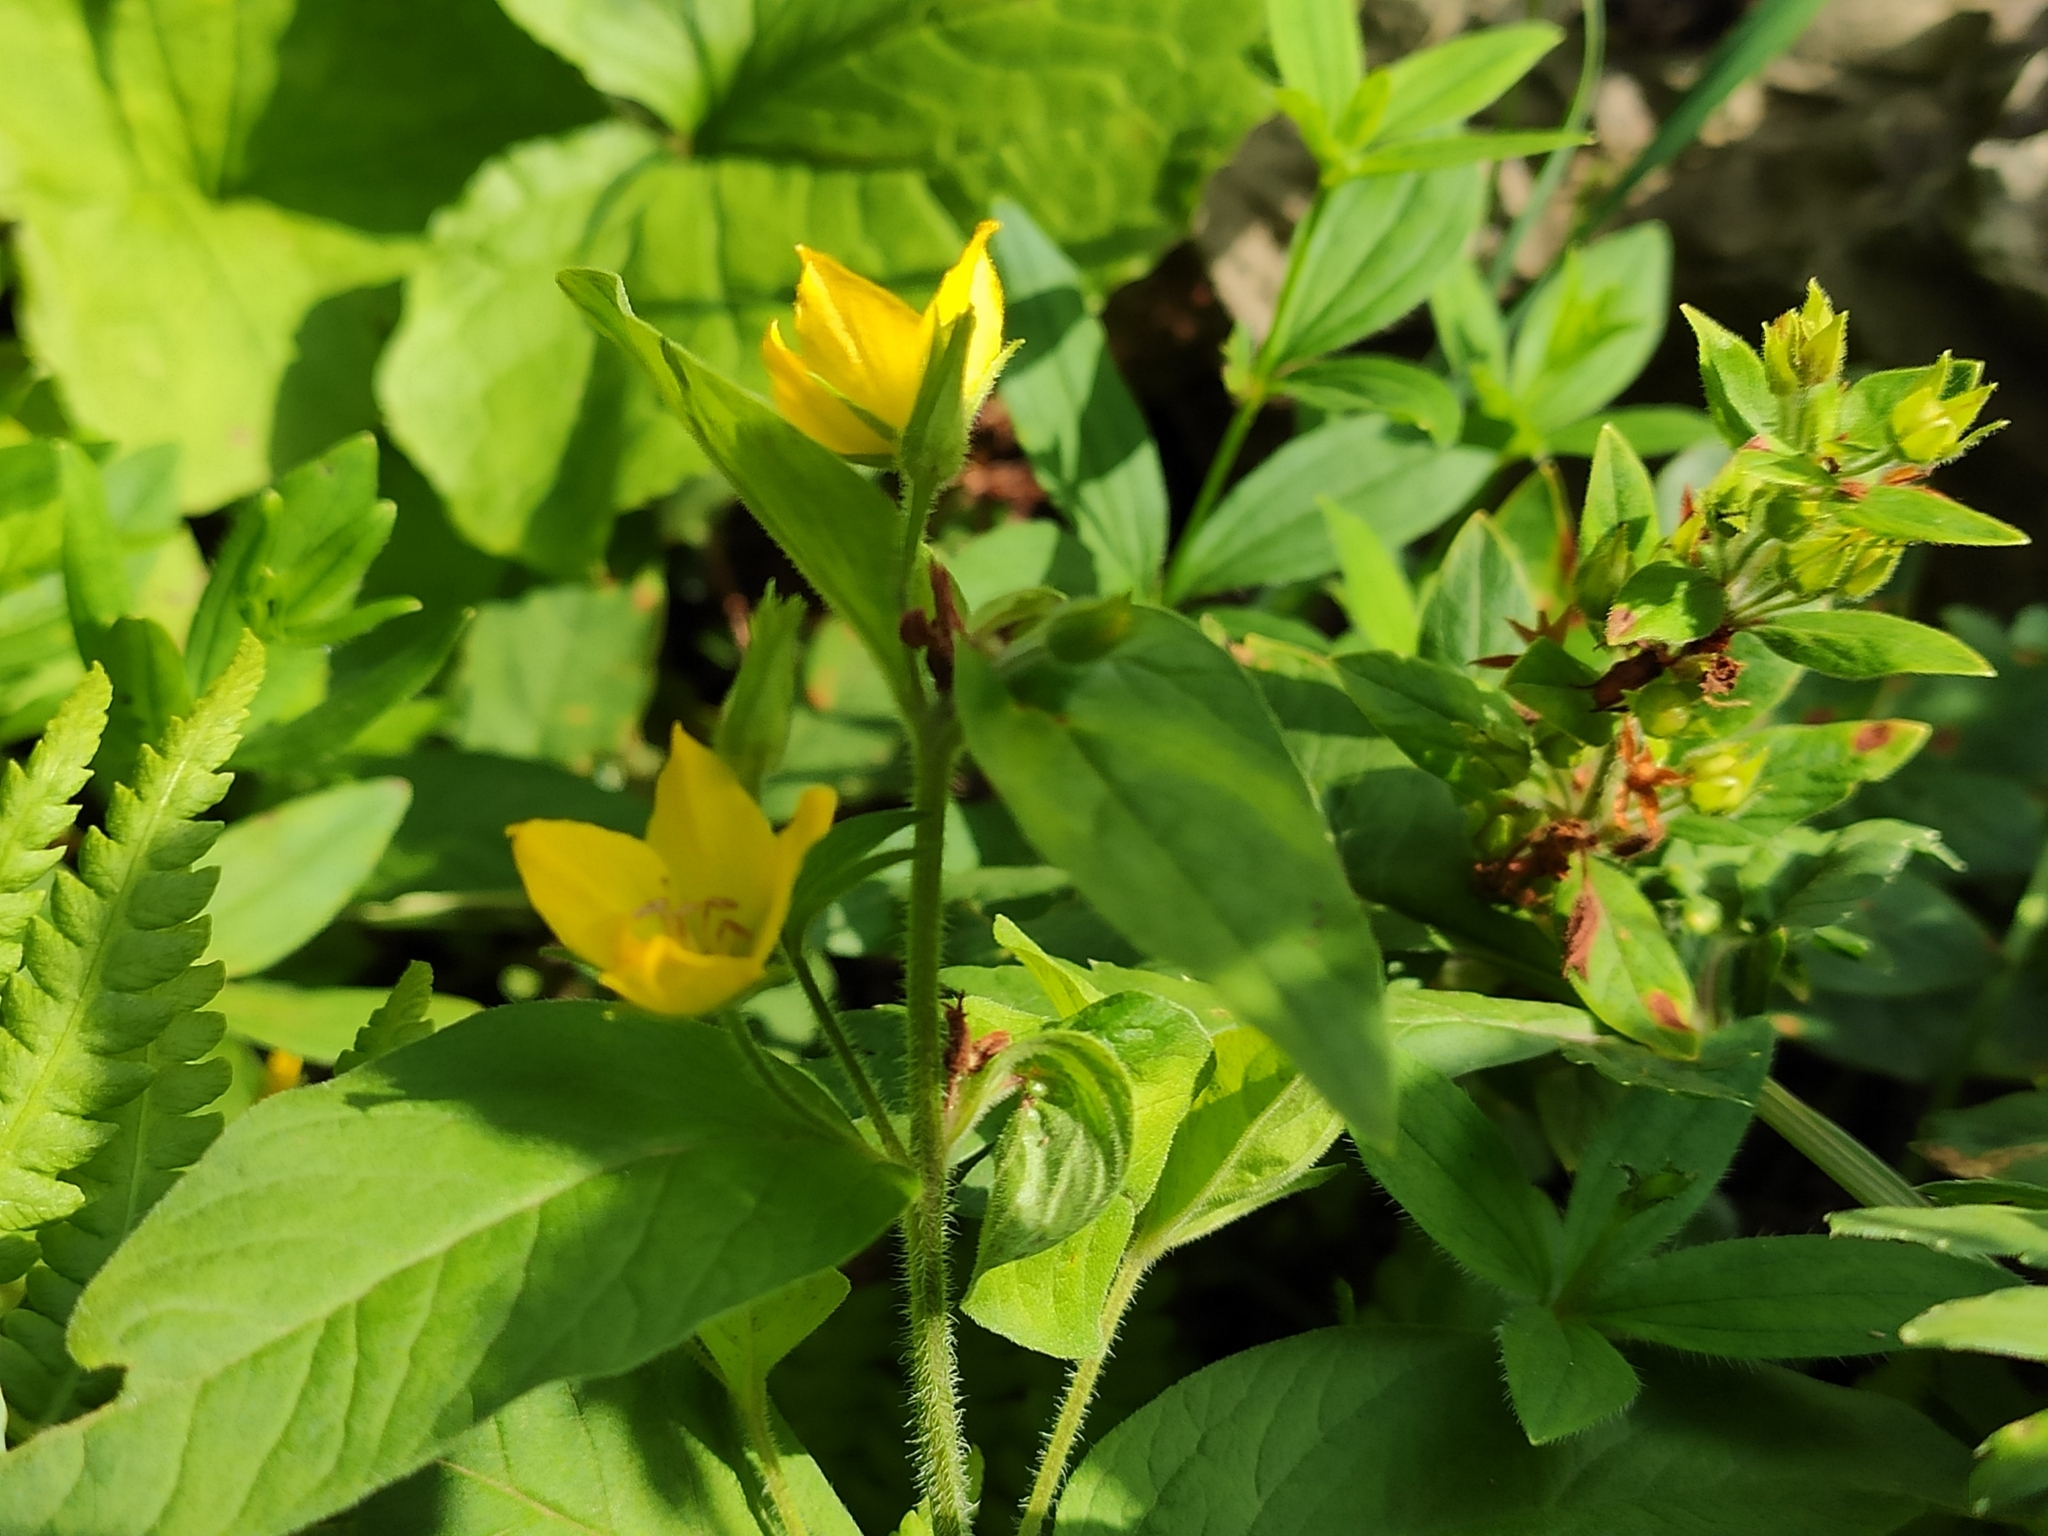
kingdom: Plantae
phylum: Tracheophyta
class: Magnoliopsida
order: Ericales
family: Primulaceae
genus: Lysimachia
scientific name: Lysimachia verticillaris
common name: Yellow loosestrife
